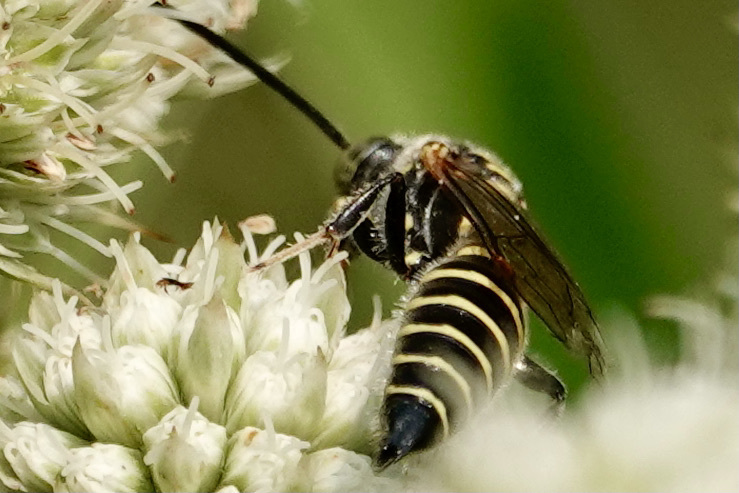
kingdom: Animalia
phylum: Arthropoda
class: Insecta
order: Hymenoptera
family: Tiphiidae
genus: Myzinum
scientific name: Myzinum
